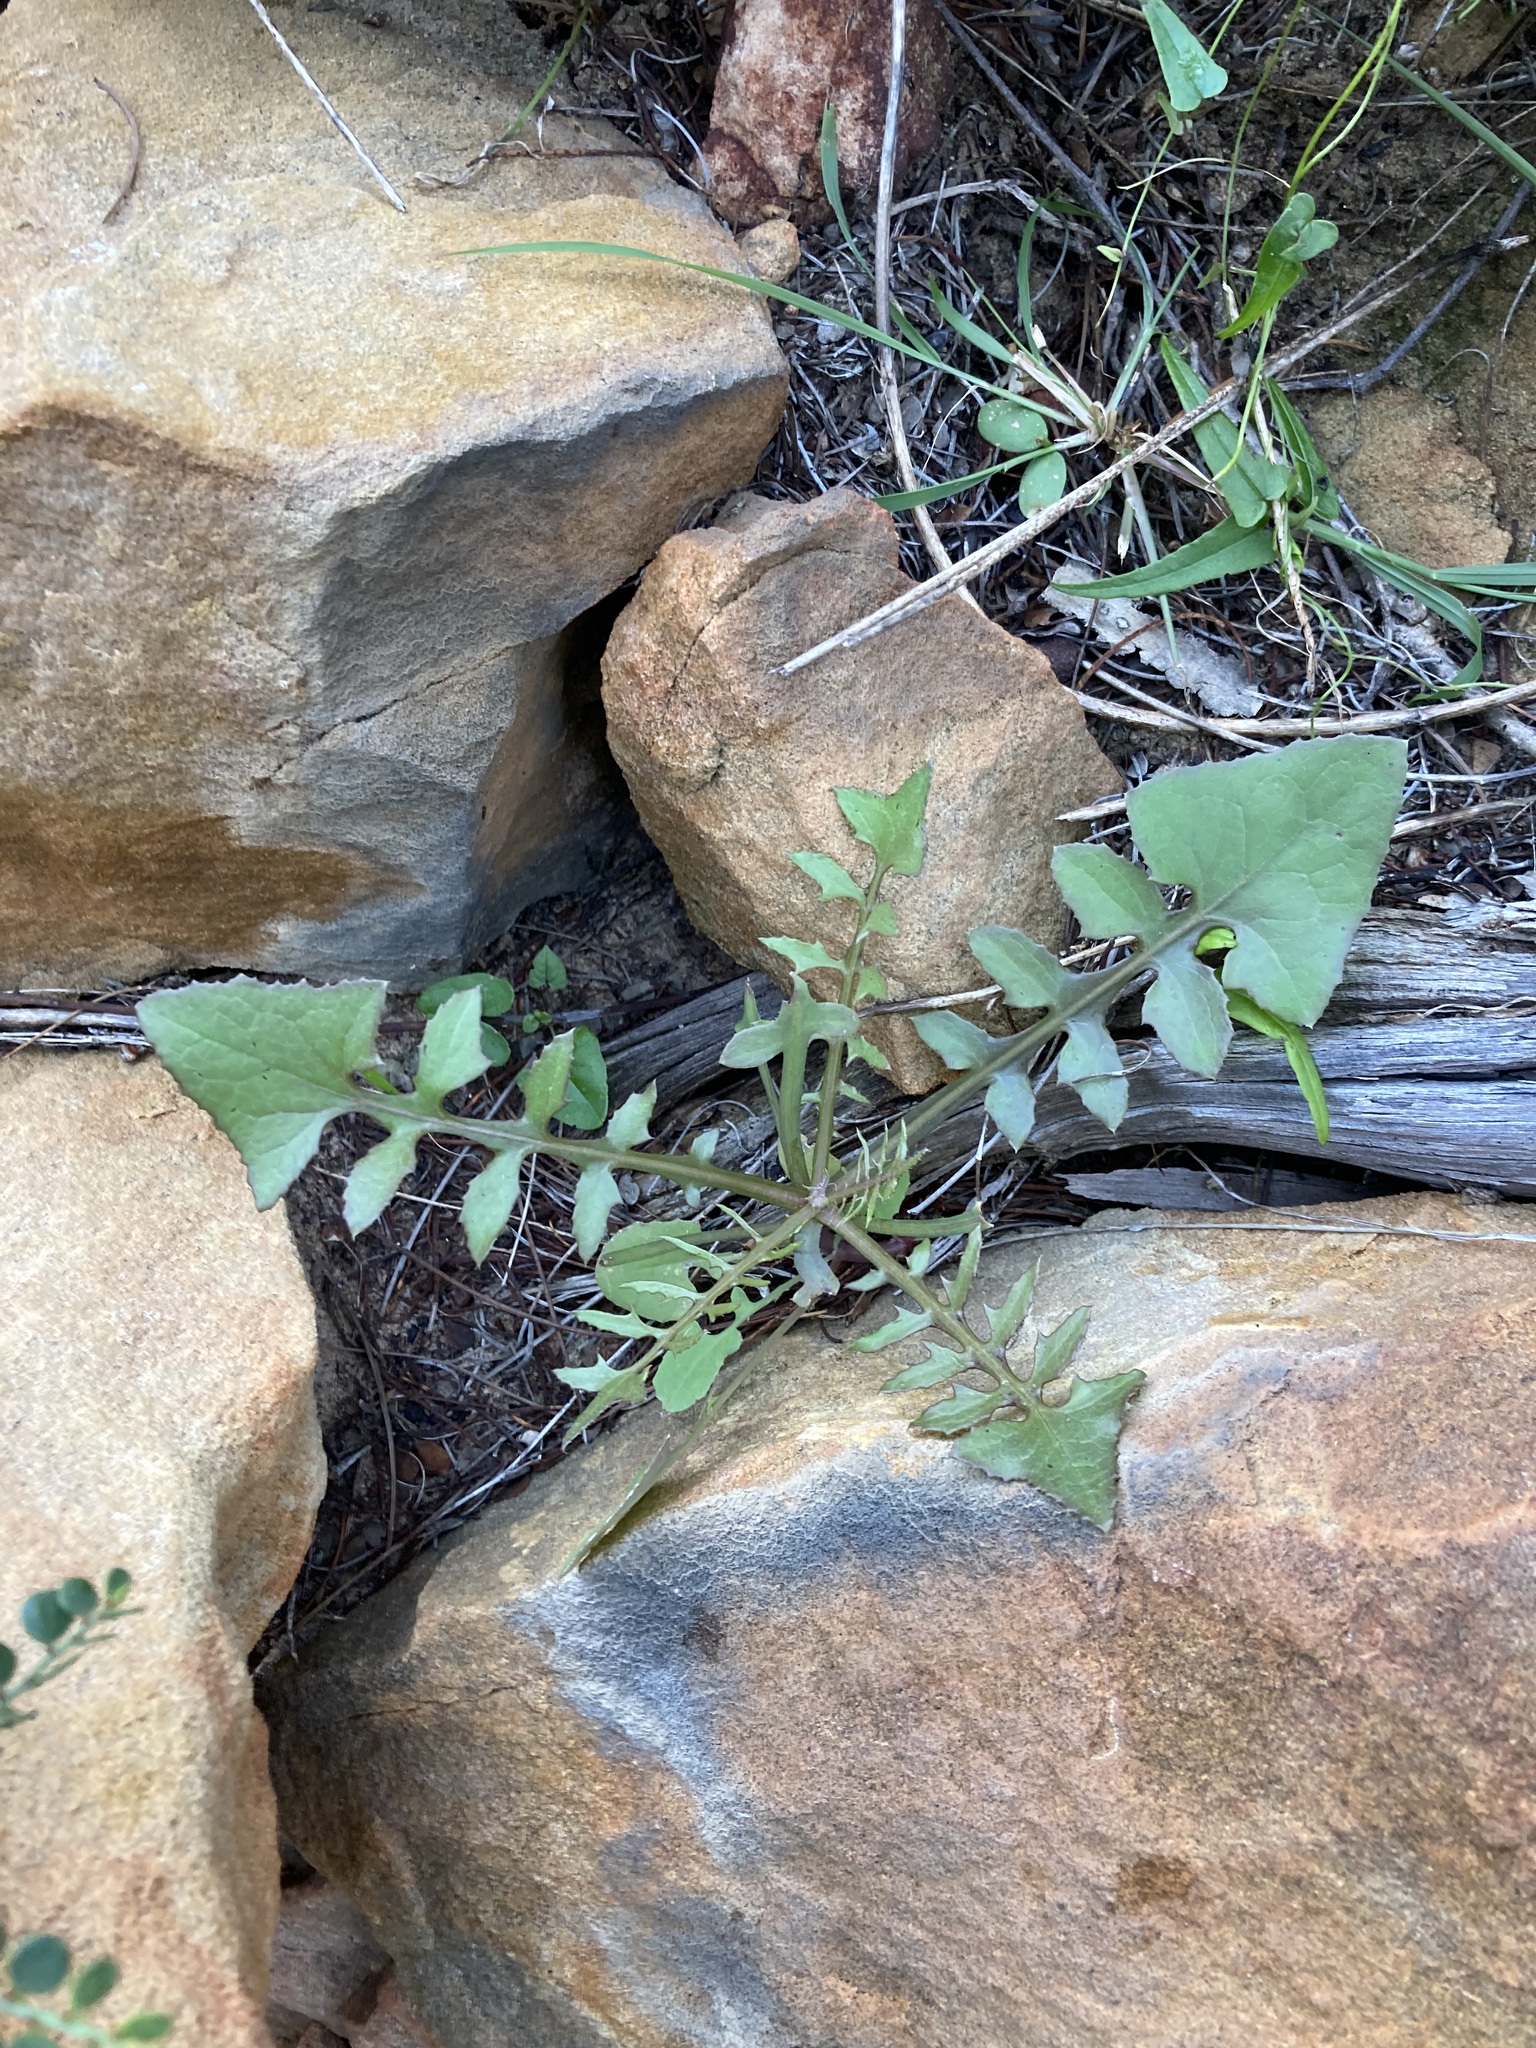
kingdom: Plantae
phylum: Tracheophyta
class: Magnoliopsida
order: Asterales
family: Asteraceae
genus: Sonchus
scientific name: Sonchus oleraceus
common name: Common sowthistle
